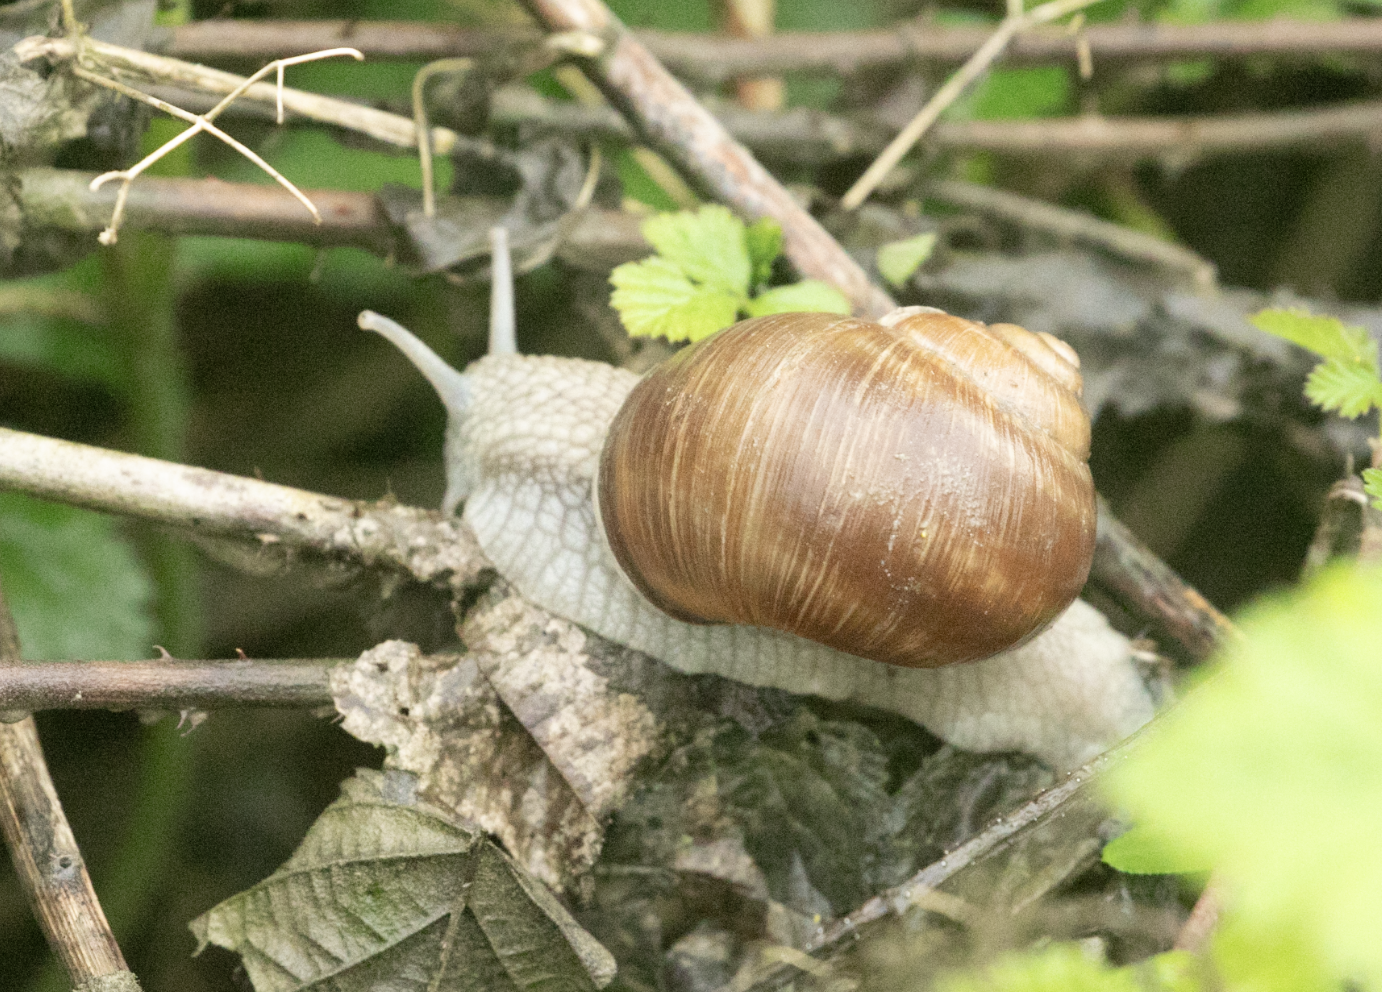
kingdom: Animalia
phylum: Mollusca
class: Gastropoda
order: Stylommatophora
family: Helicidae
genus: Helix
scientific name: Helix pomatia
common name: Roman snail
